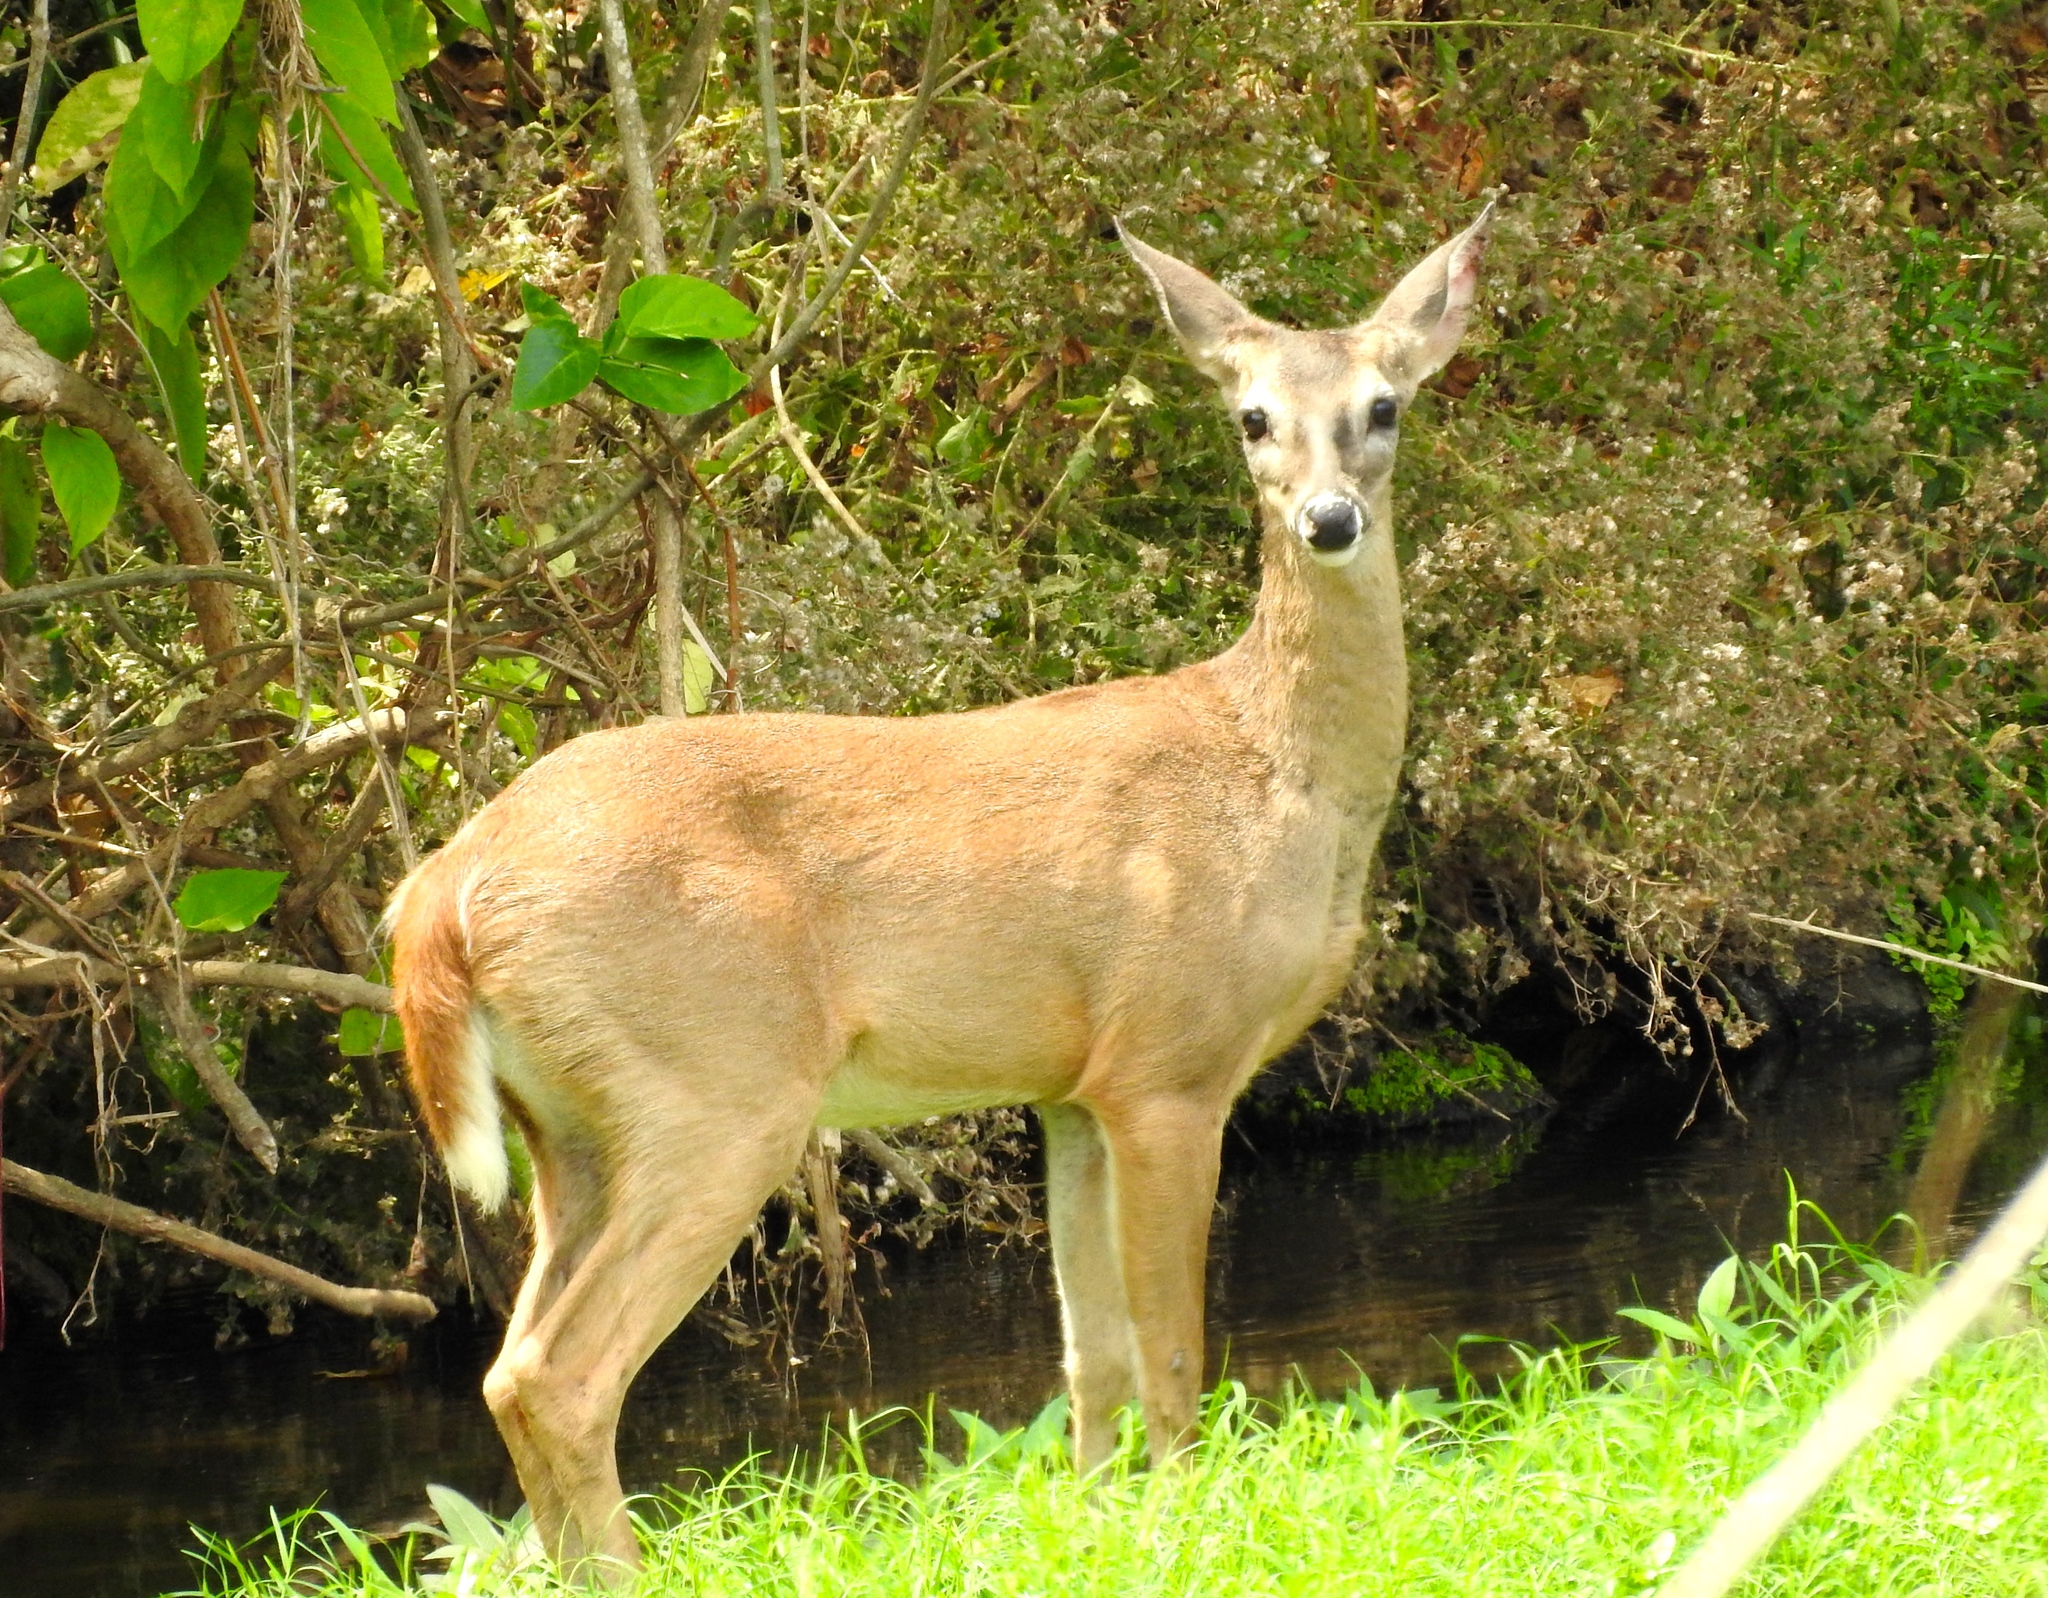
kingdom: Animalia
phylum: Chordata
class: Mammalia
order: Artiodactyla
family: Cervidae
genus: Odocoileus
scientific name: Odocoileus virginianus
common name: White-tailed deer
